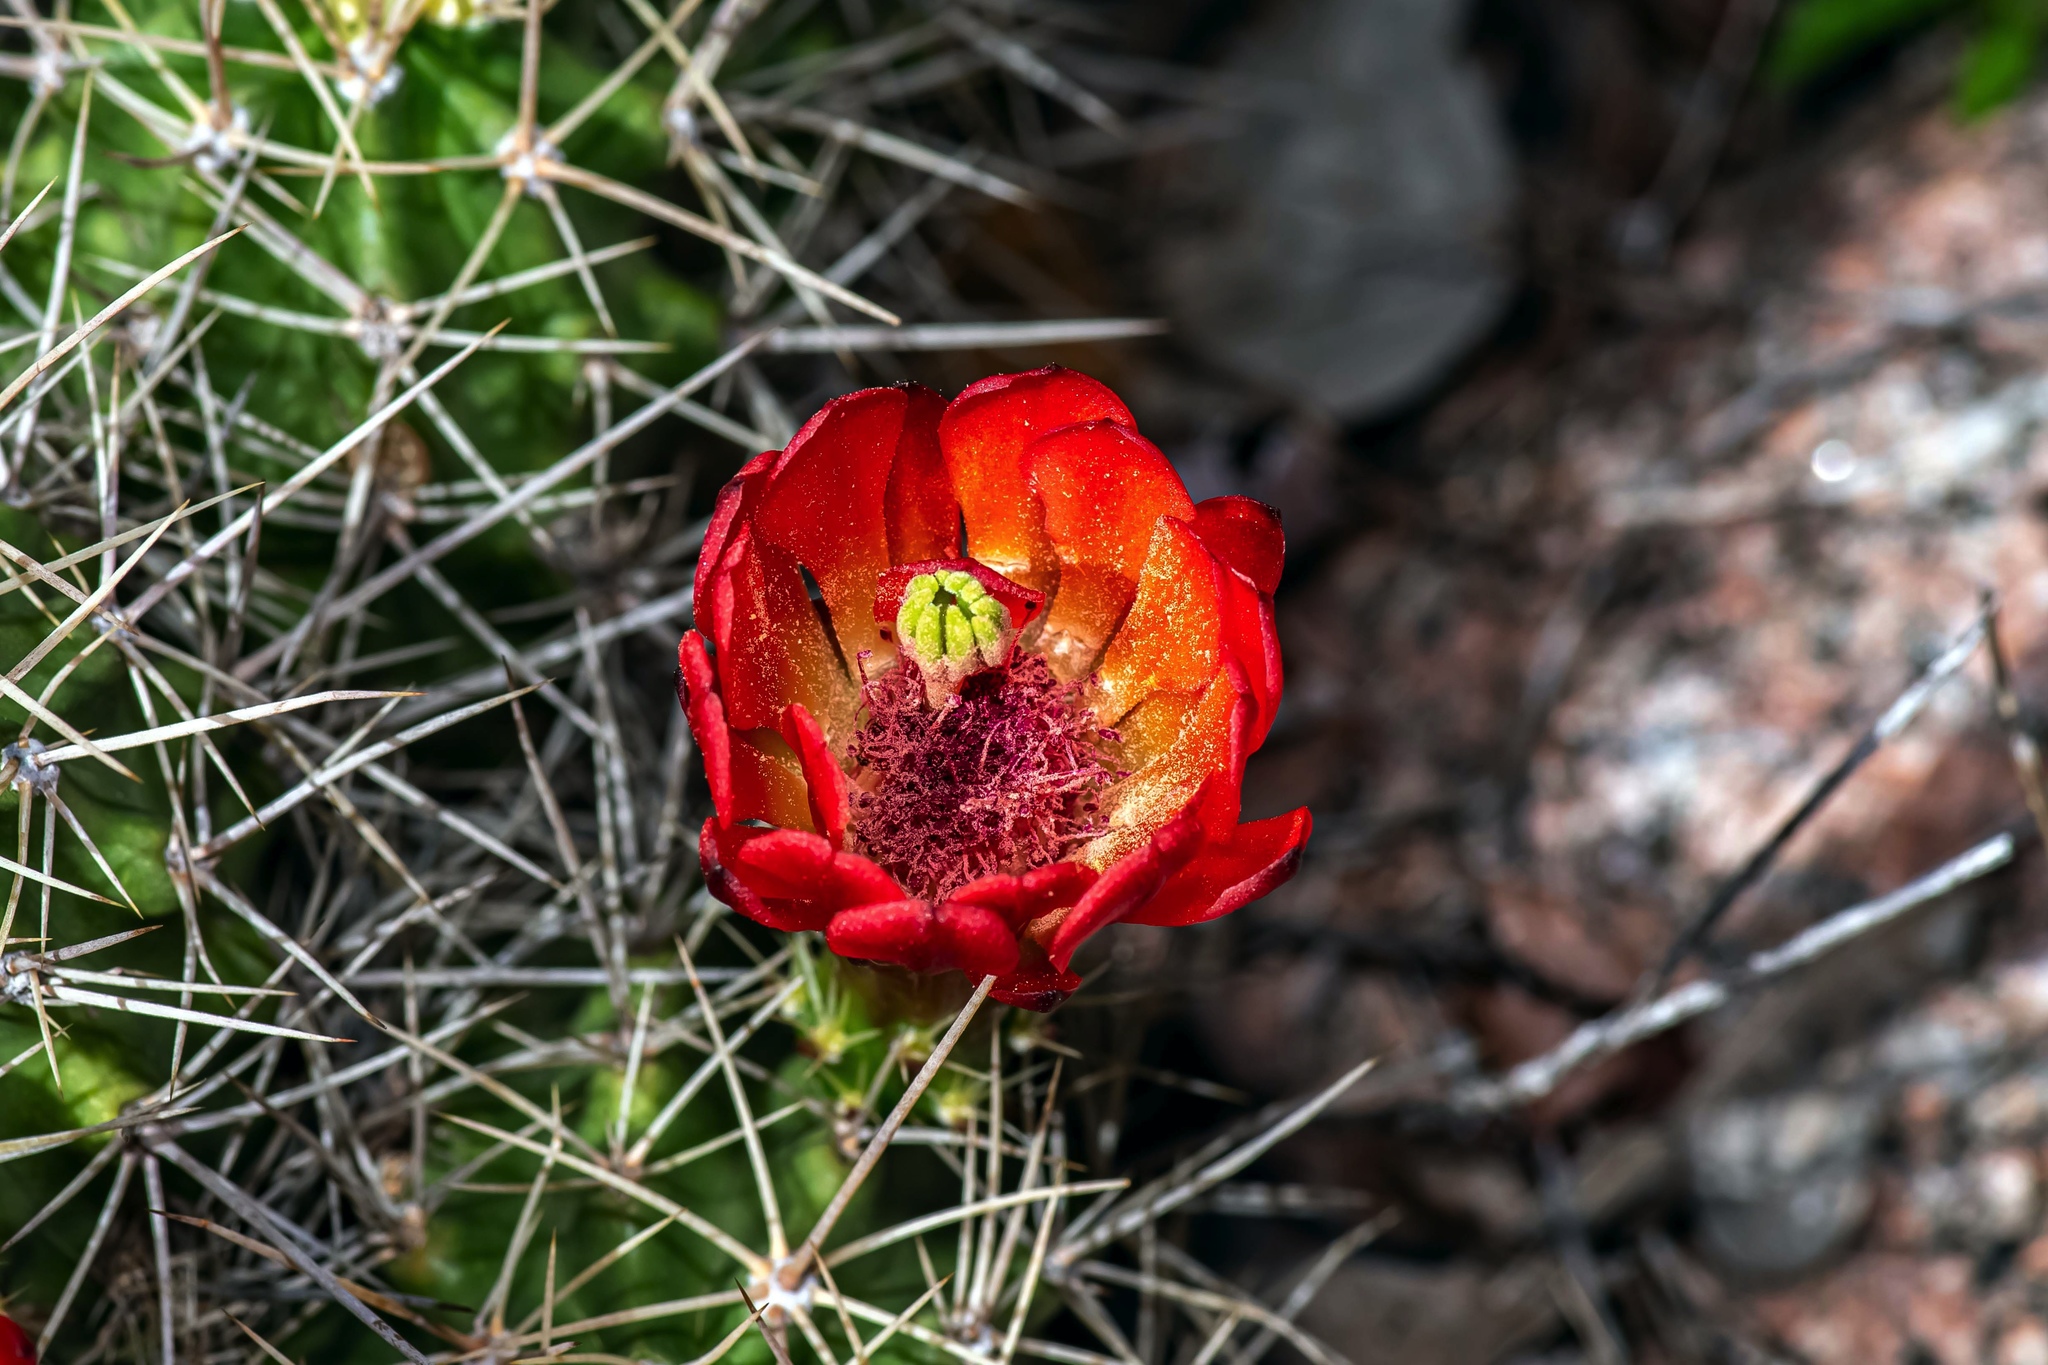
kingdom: Plantae
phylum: Tracheophyta
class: Magnoliopsida
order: Caryophyllales
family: Cactaceae
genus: Echinocereus
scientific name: Echinocereus coccineus
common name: Scarlet hedgehog cactus
